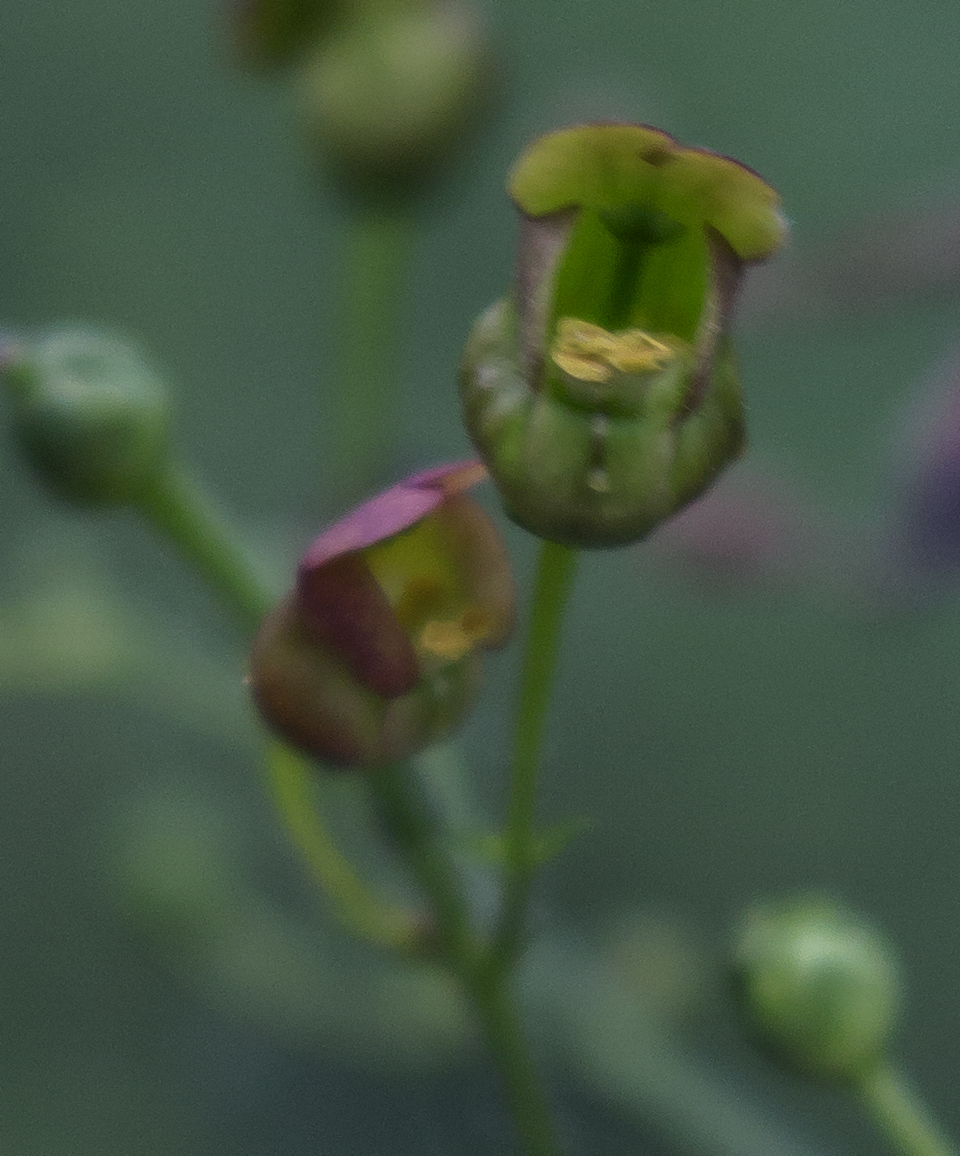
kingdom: Plantae
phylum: Tracheophyta
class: Magnoliopsida
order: Lamiales
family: Scrophulariaceae
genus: Scrophularia
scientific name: Scrophularia lanceolata
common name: American figwort
